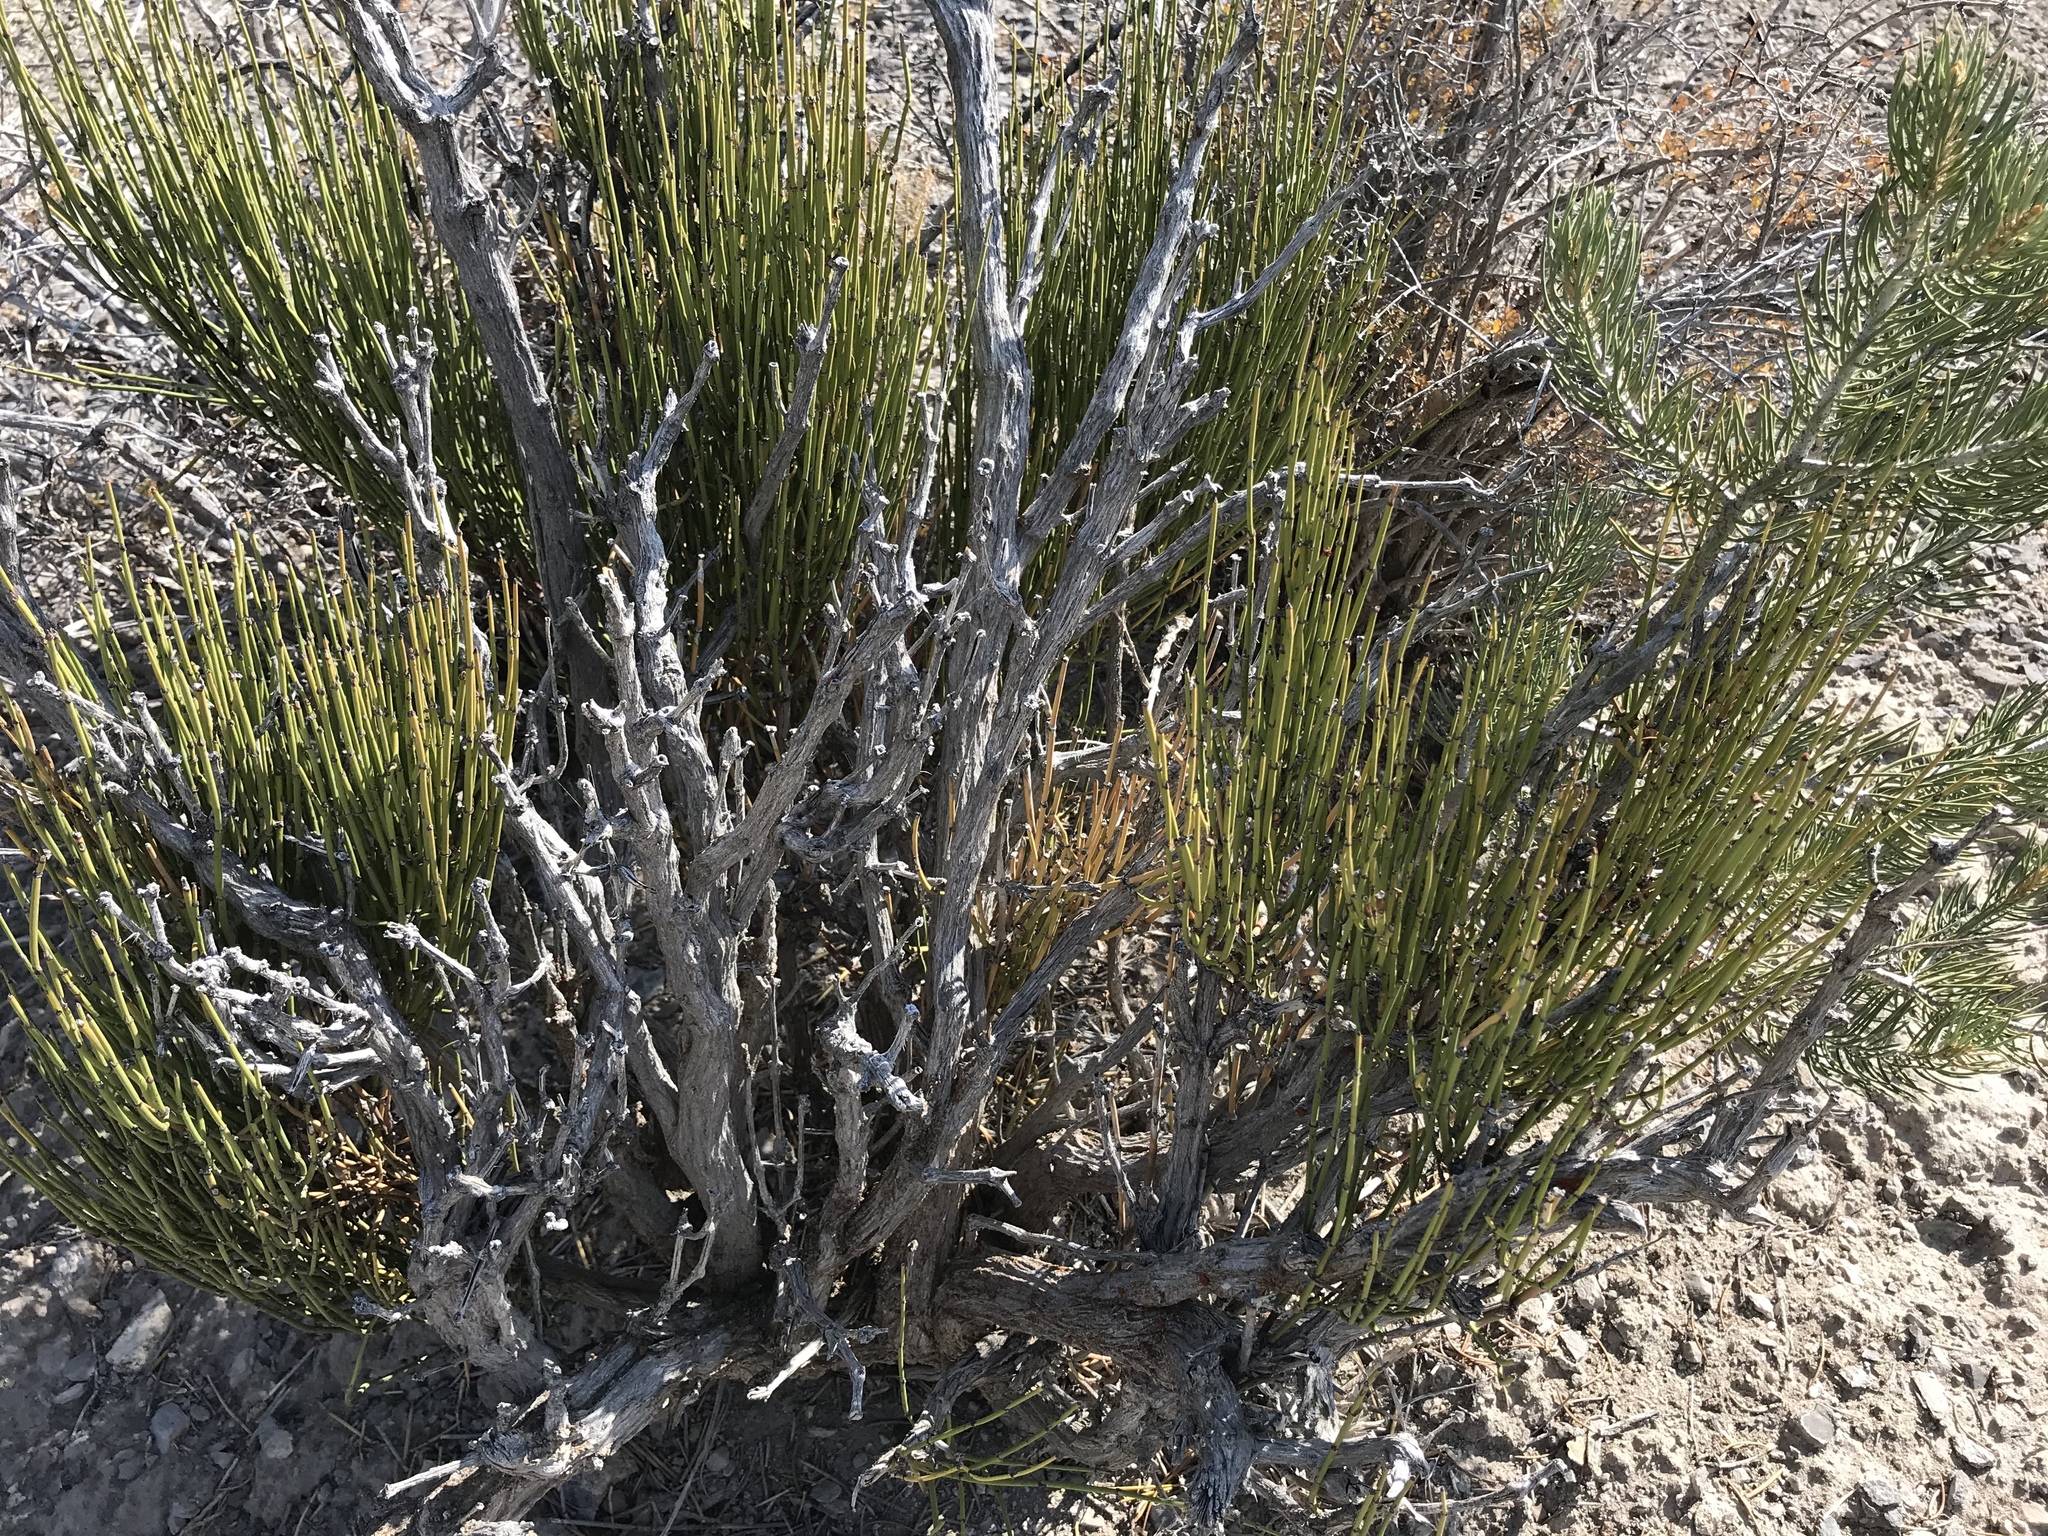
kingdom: Plantae
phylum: Tracheophyta
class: Gnetopsida
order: Ephedrales
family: Ephedraceae
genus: Ephedra
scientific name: Ephedra viridis
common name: Green ephedra
